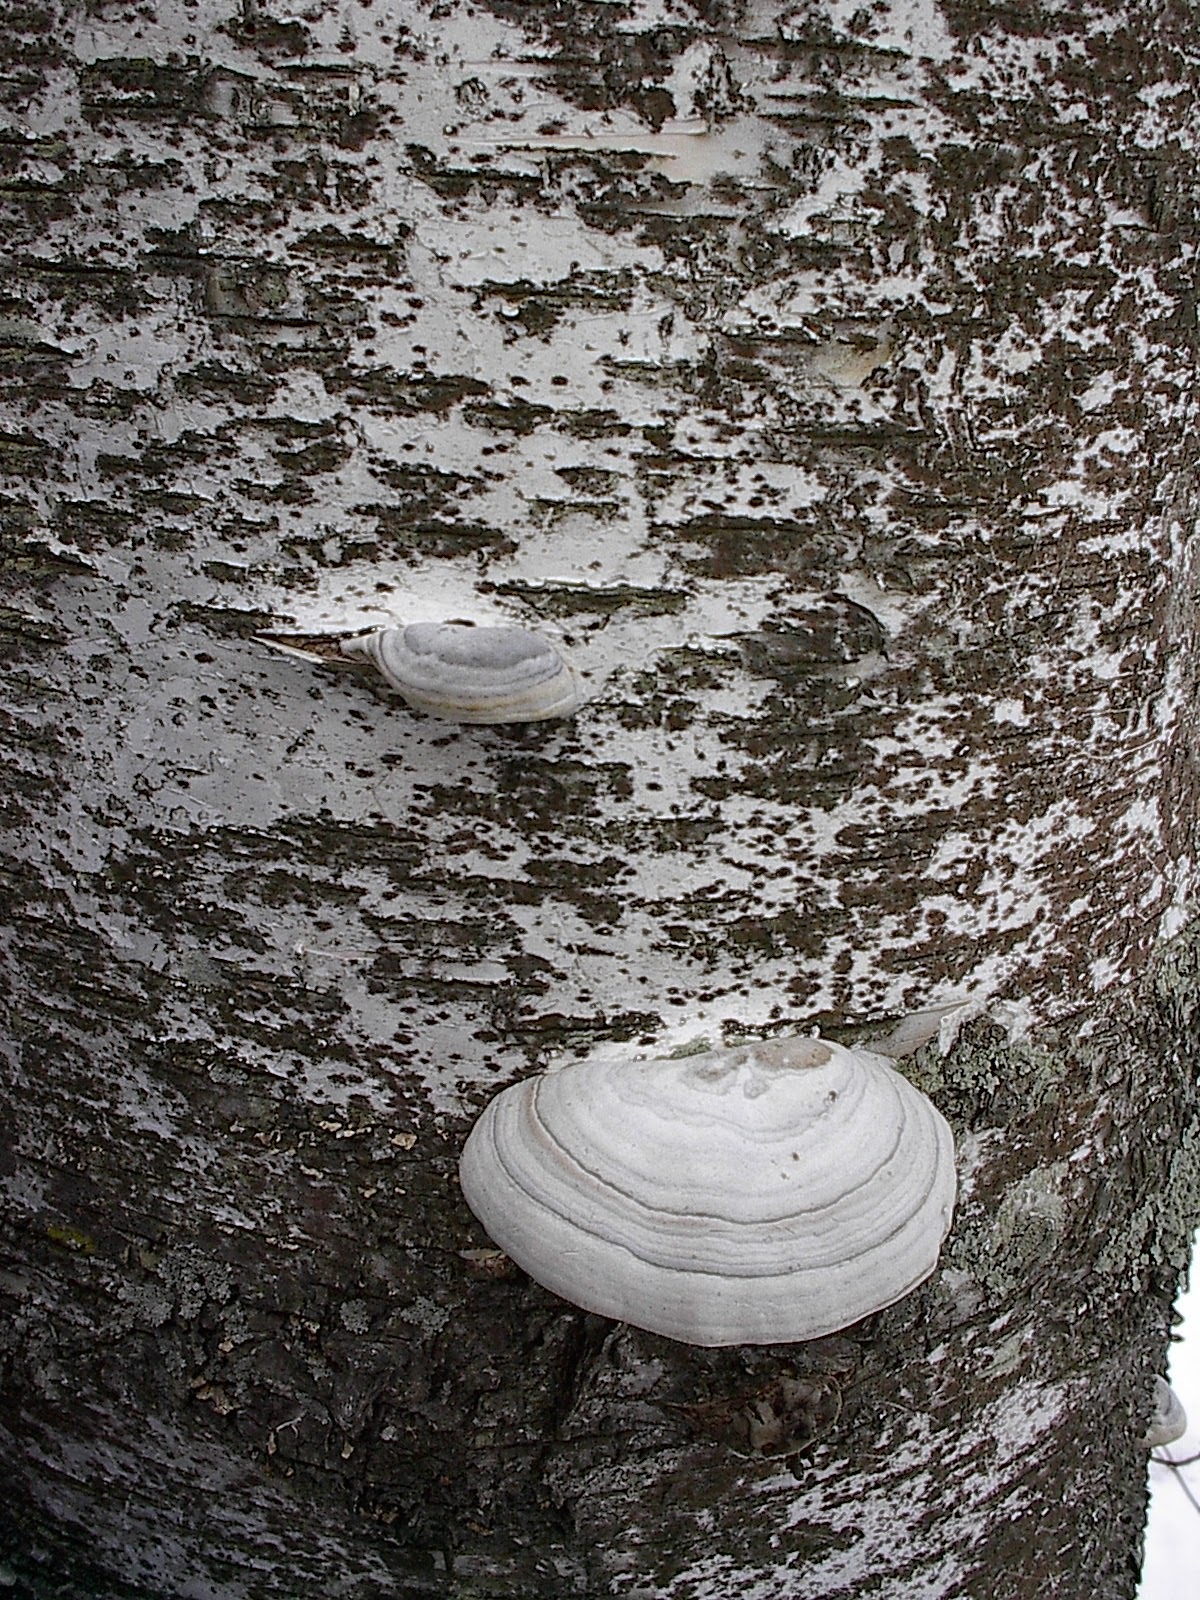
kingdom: Fungi
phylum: Basidiomycota
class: Agaricomycetes
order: Polyporales
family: Polyporaceae
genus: Fomes
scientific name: Fomes fomentarius
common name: Hoof fungus
